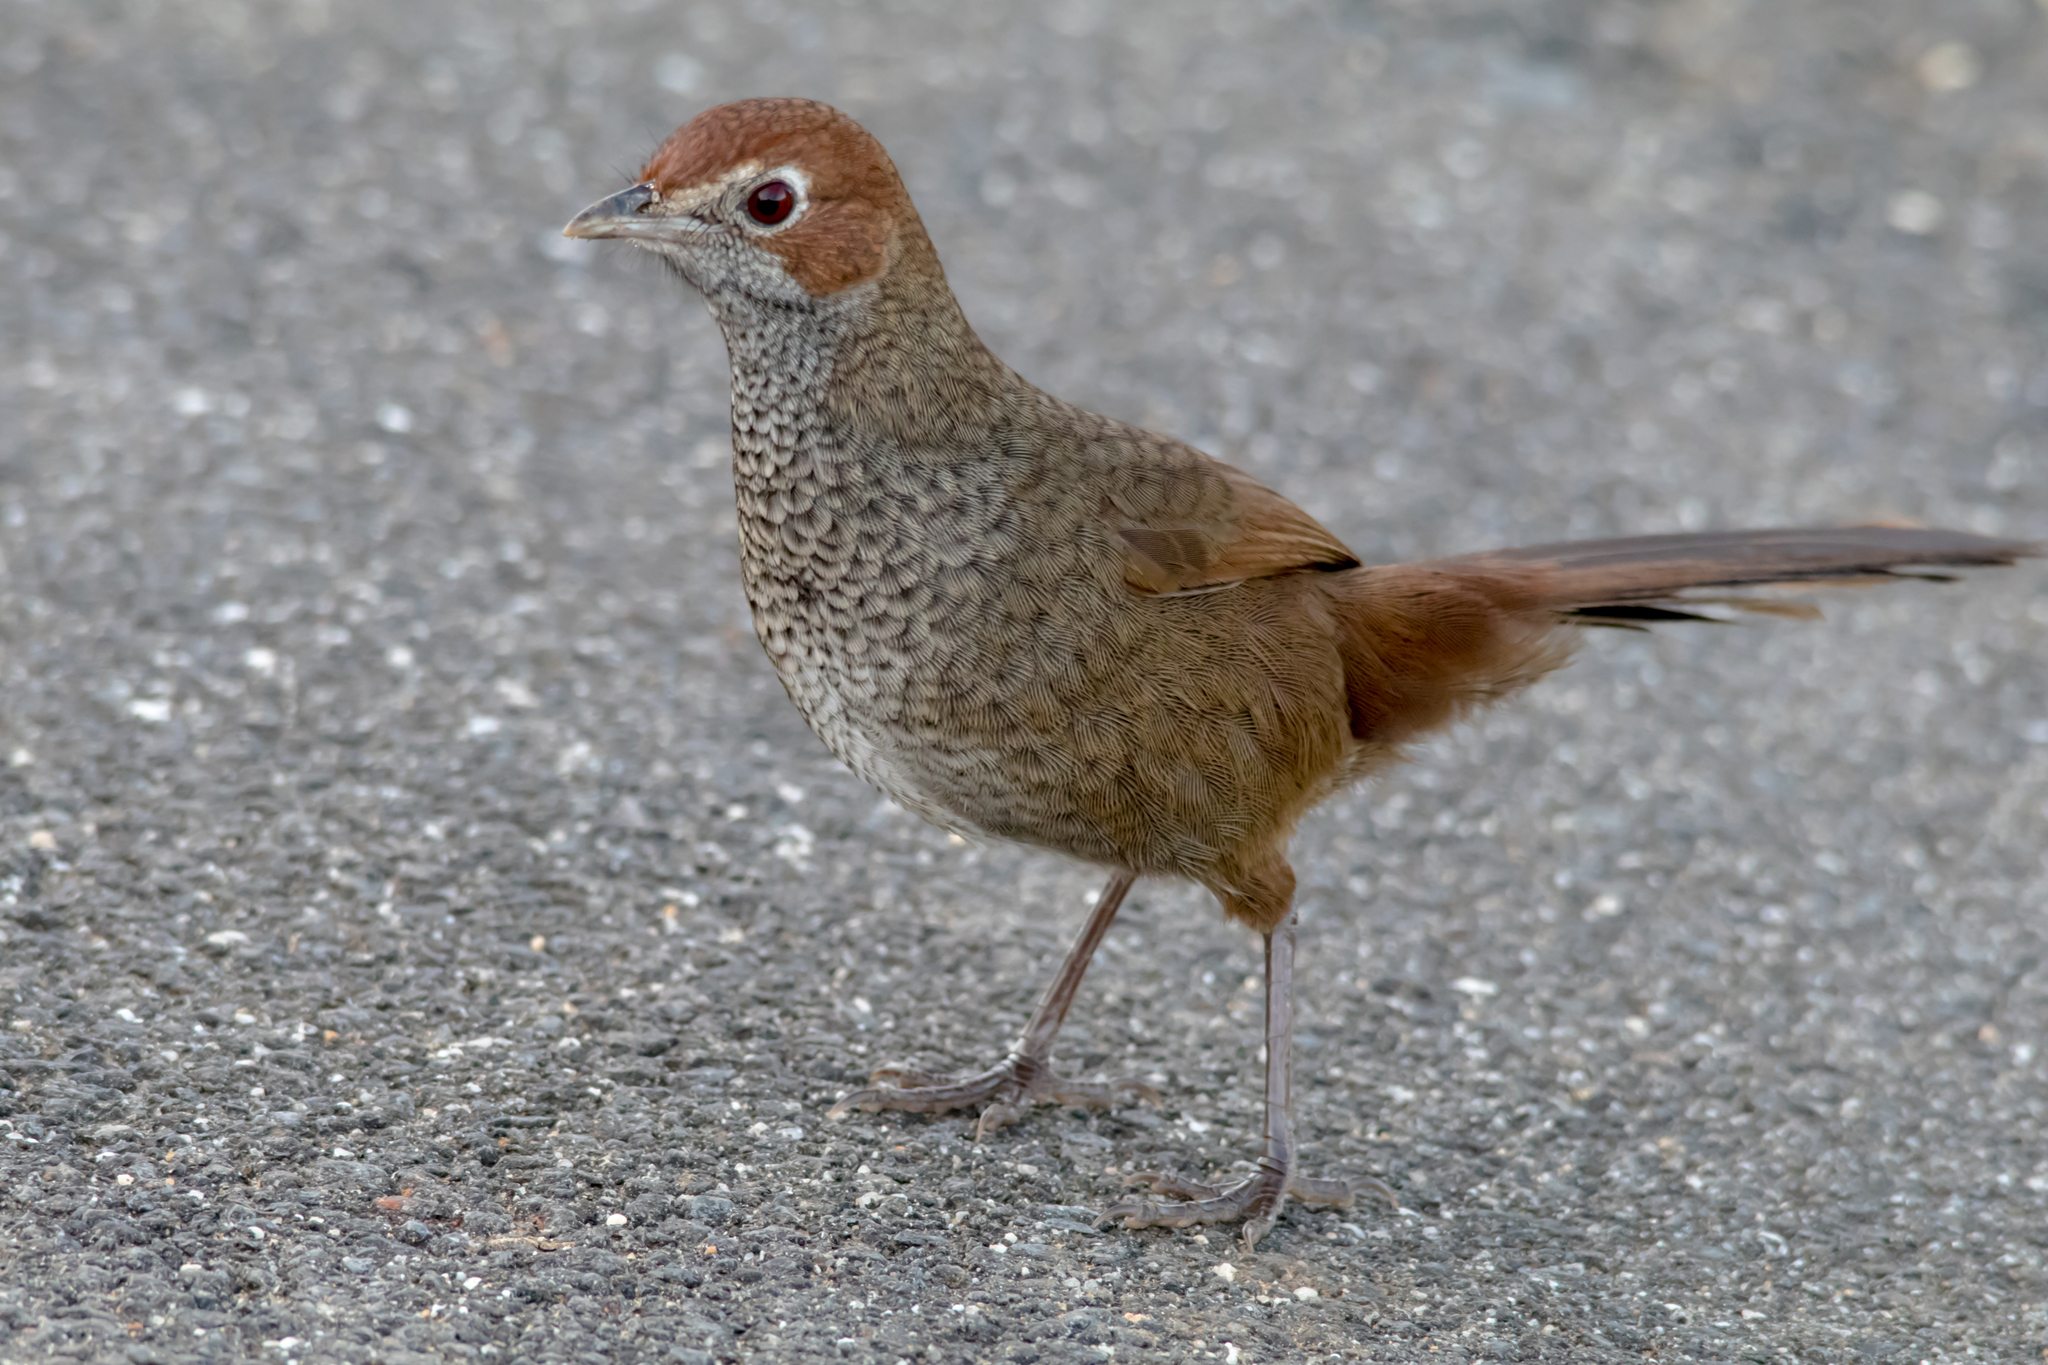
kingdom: Animalia
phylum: Chordata
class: Aves
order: Passeriformes
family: Dasyornithidae
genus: Dasyornis
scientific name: Dasyornis broadbenti
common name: Rufous bristlebird
